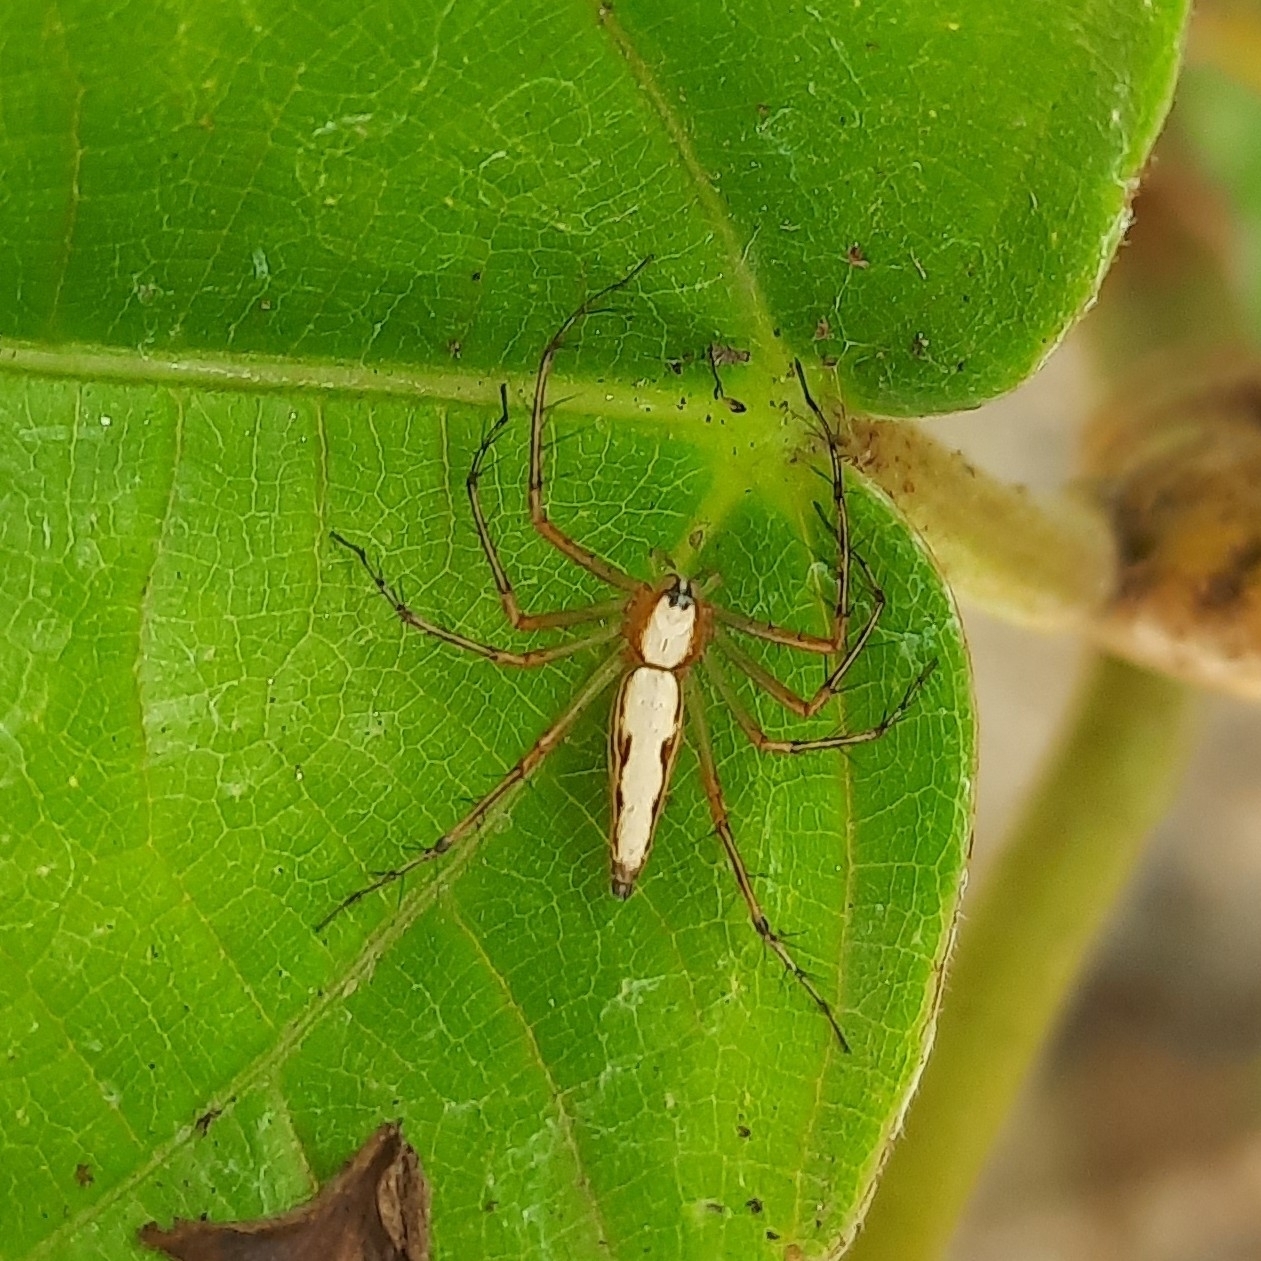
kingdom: Animalia
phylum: Arthropoda
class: Arachnida
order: Araneae
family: Oxyopidae
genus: Oxyopes
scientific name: Oxyopes shweta
